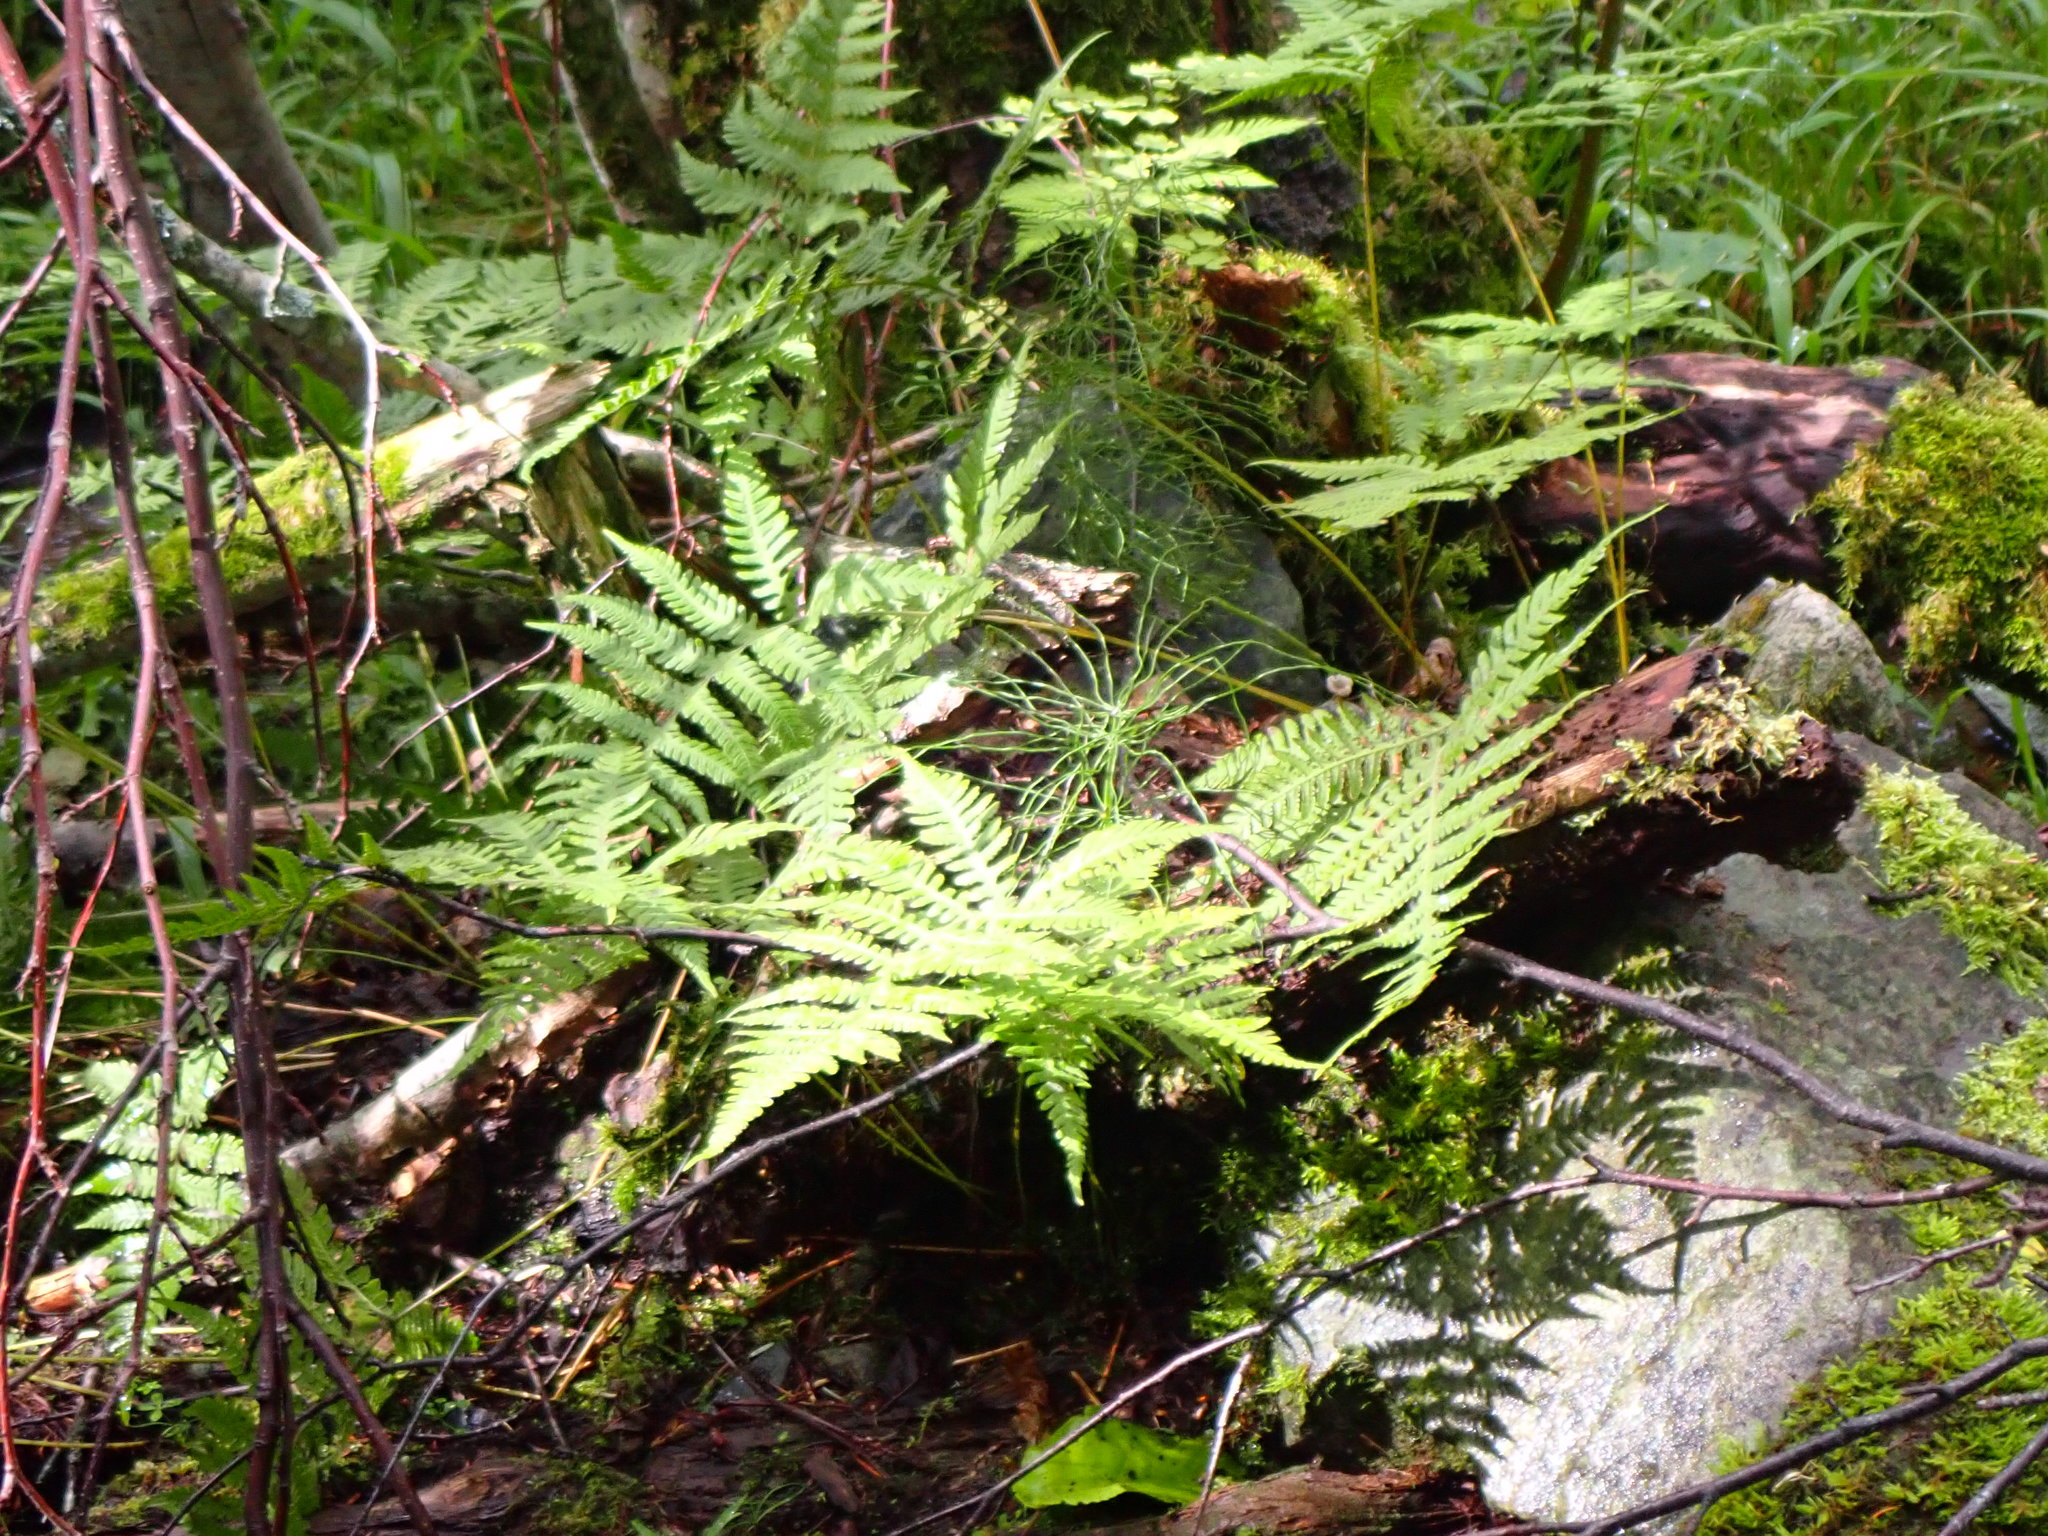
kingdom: Plantae
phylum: Tracheophyta
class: Polypodiopsida
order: Polypodiales
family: Thelypteridaceae
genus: Phegopteris
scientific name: Phegopteris connectilis
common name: Beech fern
